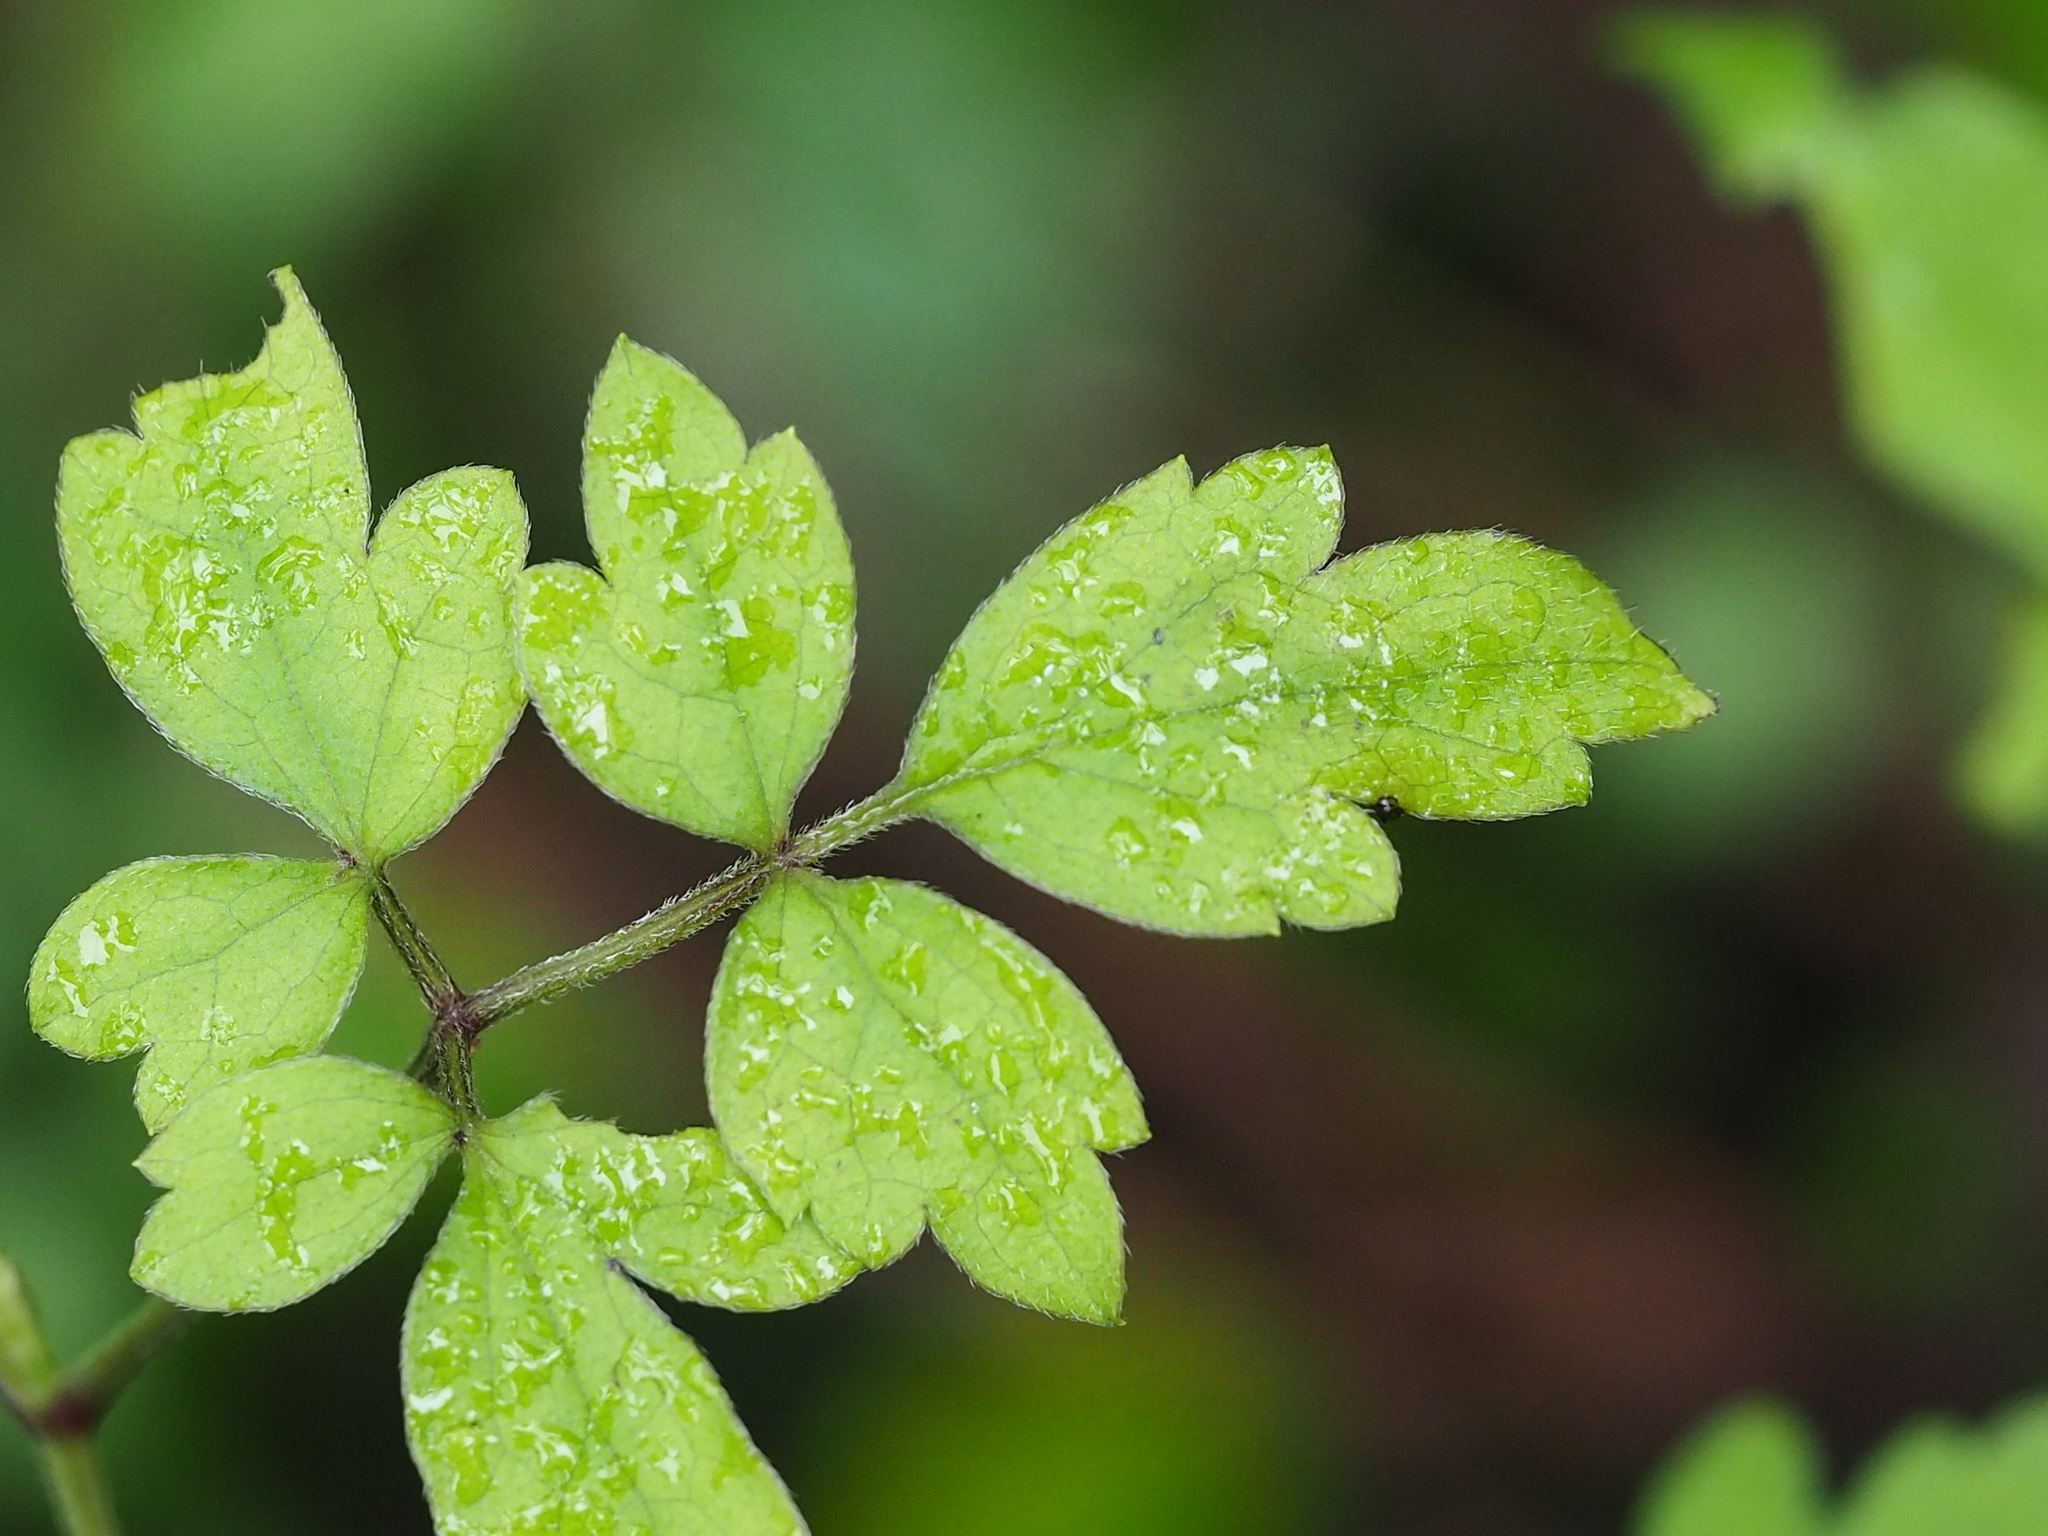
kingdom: Plantae
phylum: Tracheophyta
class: Magnoliopsida
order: Ranunculales
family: Ranunculaceae
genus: Clematis
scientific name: Clematis grata
